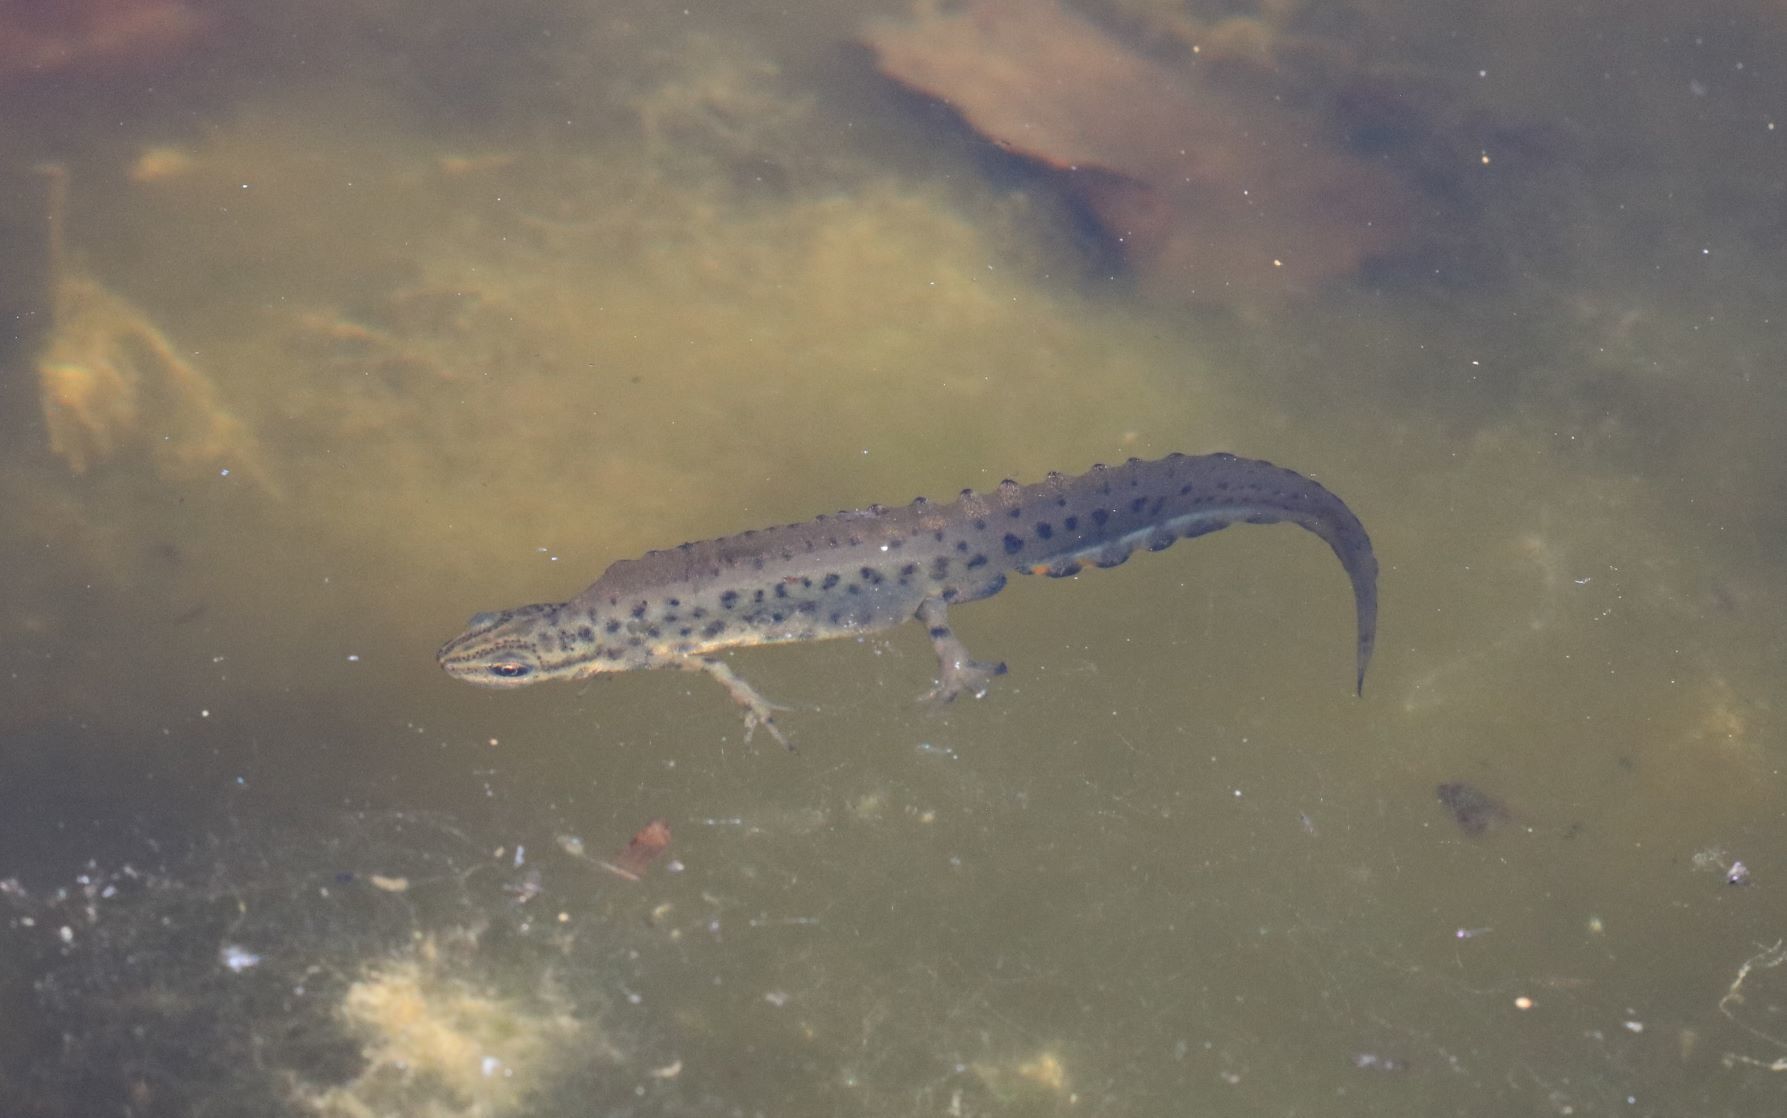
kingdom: Animalia
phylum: Chordata
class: Amphibia
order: Caudata
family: Salamandridae
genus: Lissotriton
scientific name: Lissotriton vulgaris
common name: Smooth newt
